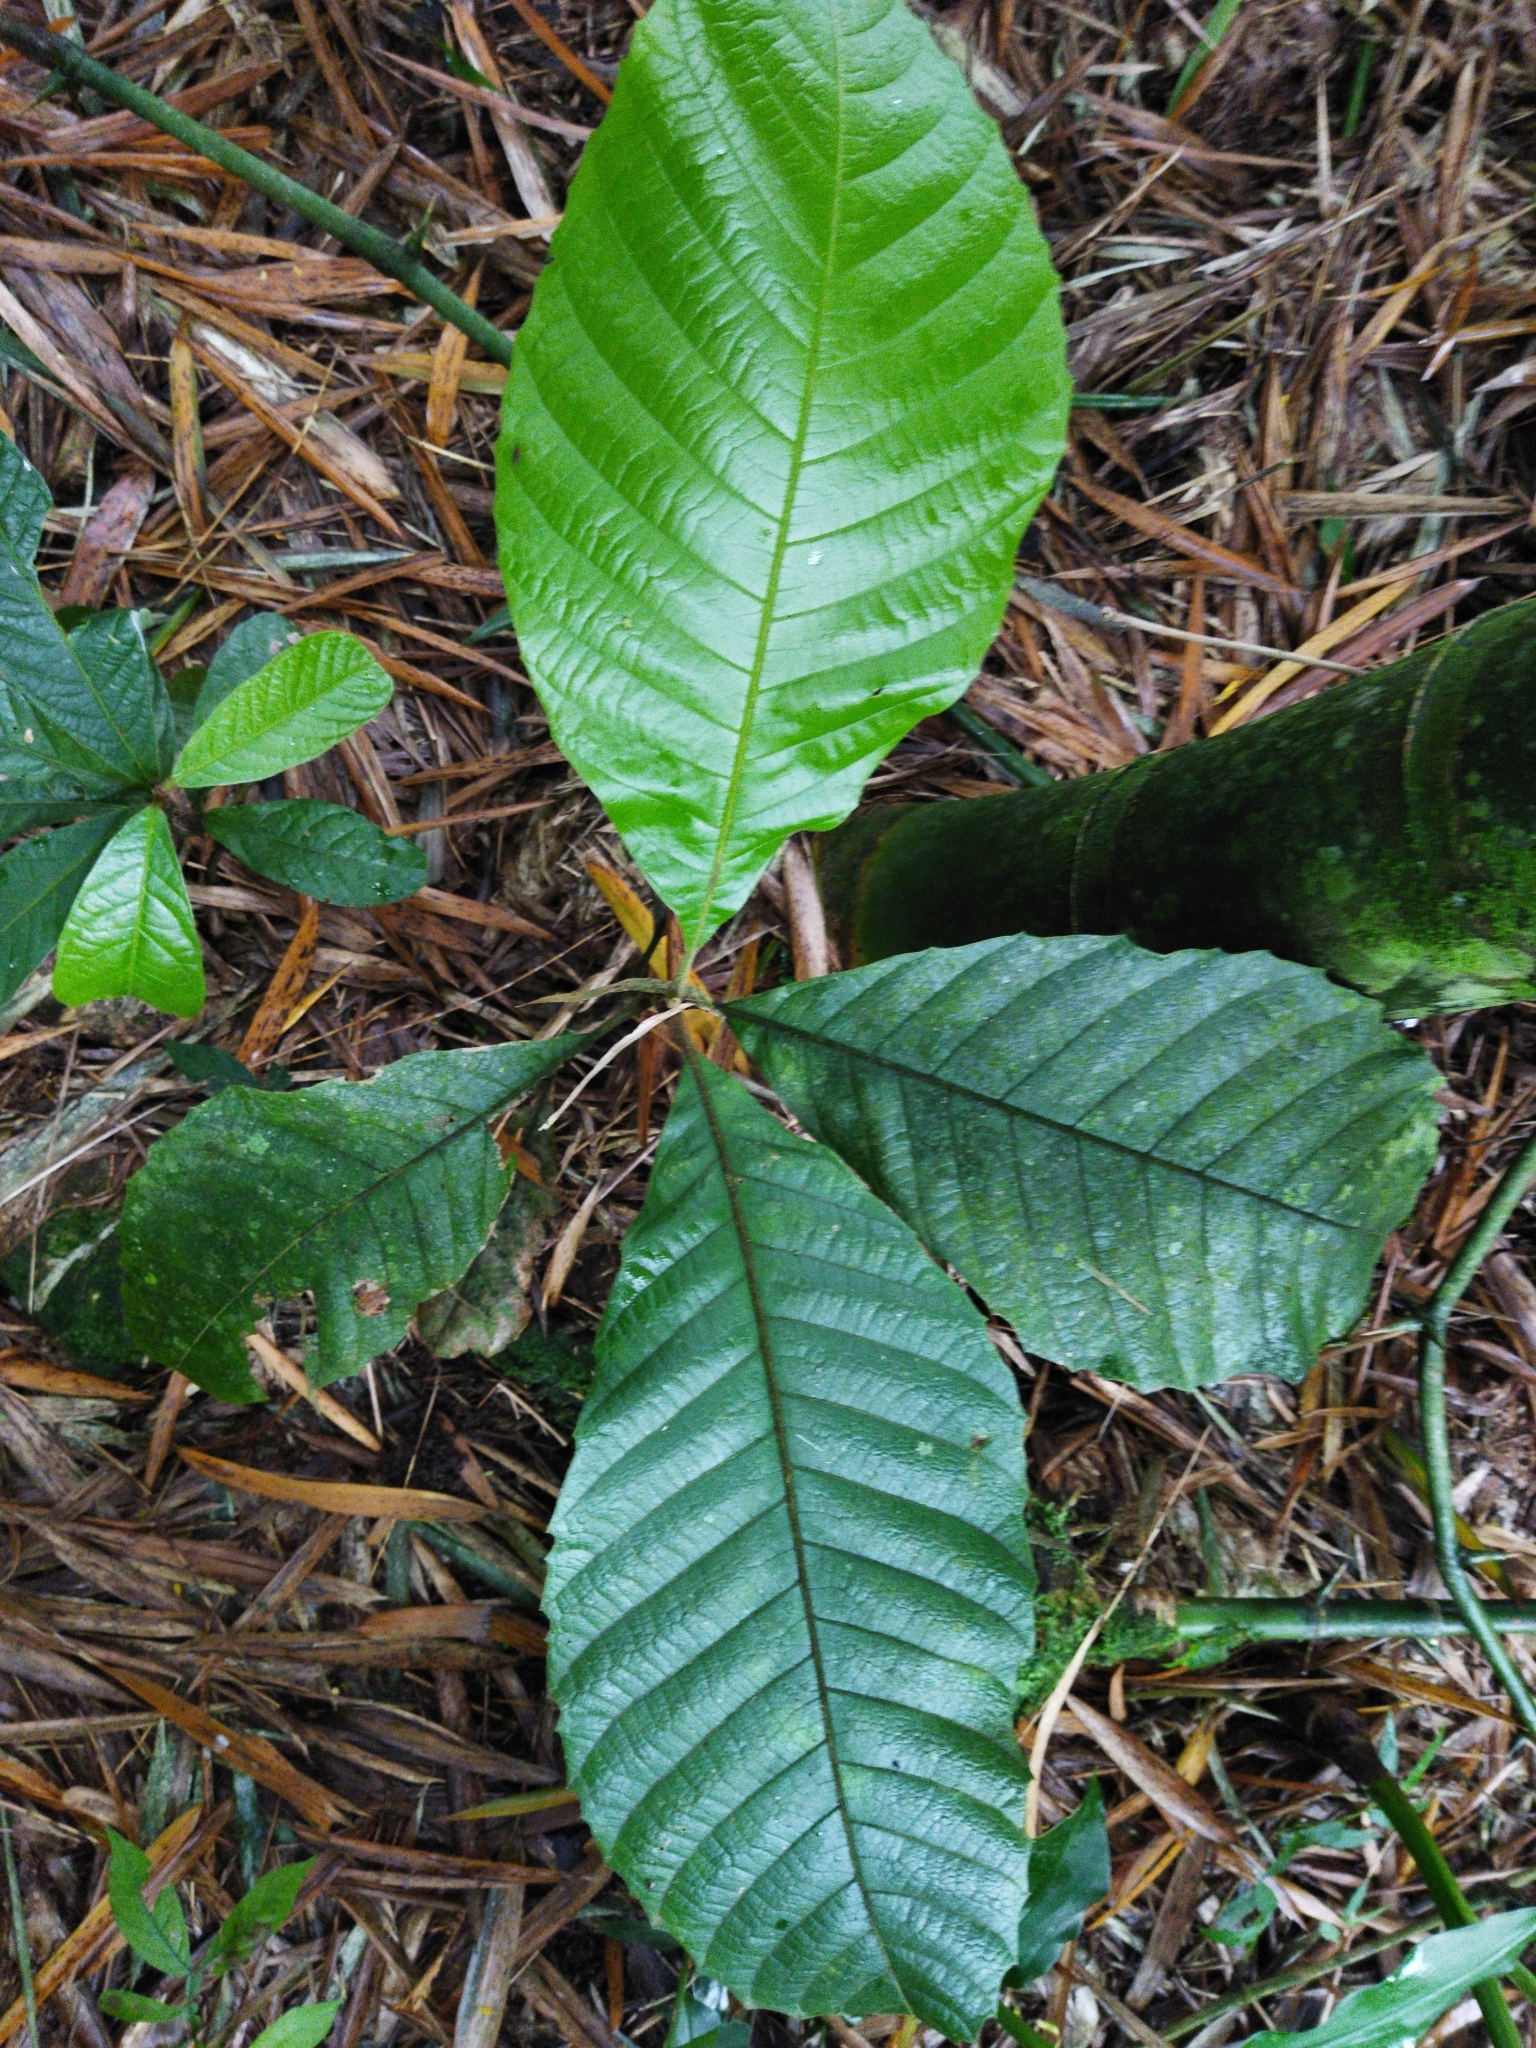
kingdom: Plantae
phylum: Tracheophyta
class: Magnoliopsida
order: Sapindales
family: Sapindaceae
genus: Cupania
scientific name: Cupania americana
